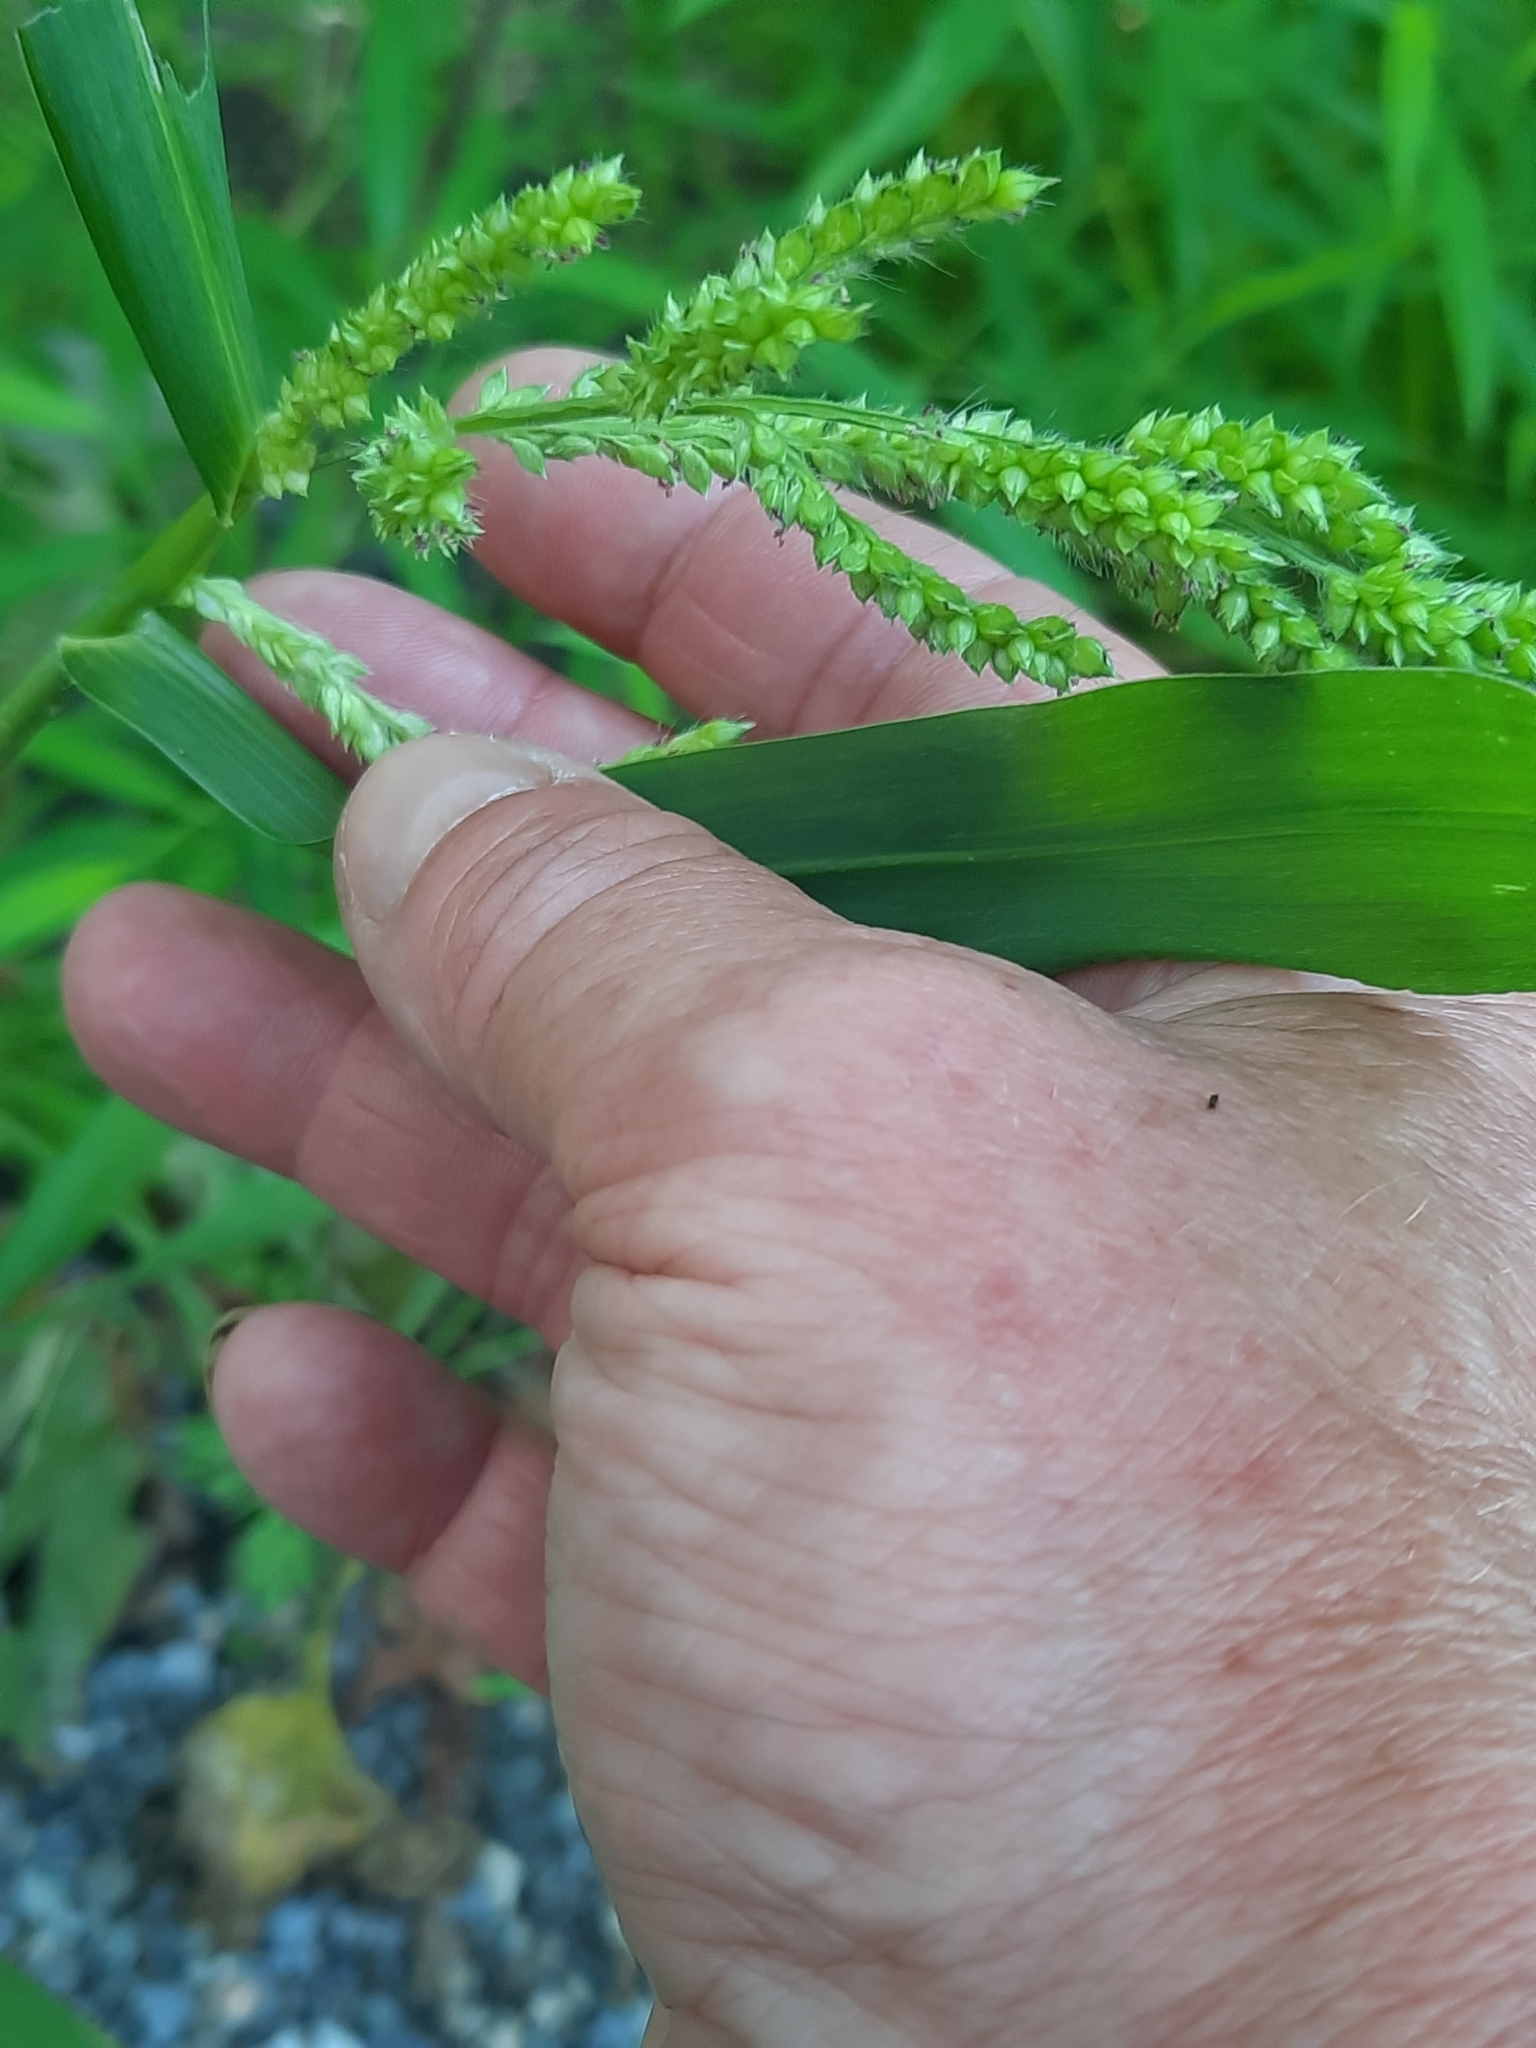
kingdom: Plantae
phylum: Tracheophyta
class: Liliopsida
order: Poales
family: Poaceae
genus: Echinochloa
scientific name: Echinochloa crus-galli
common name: Cockspur
